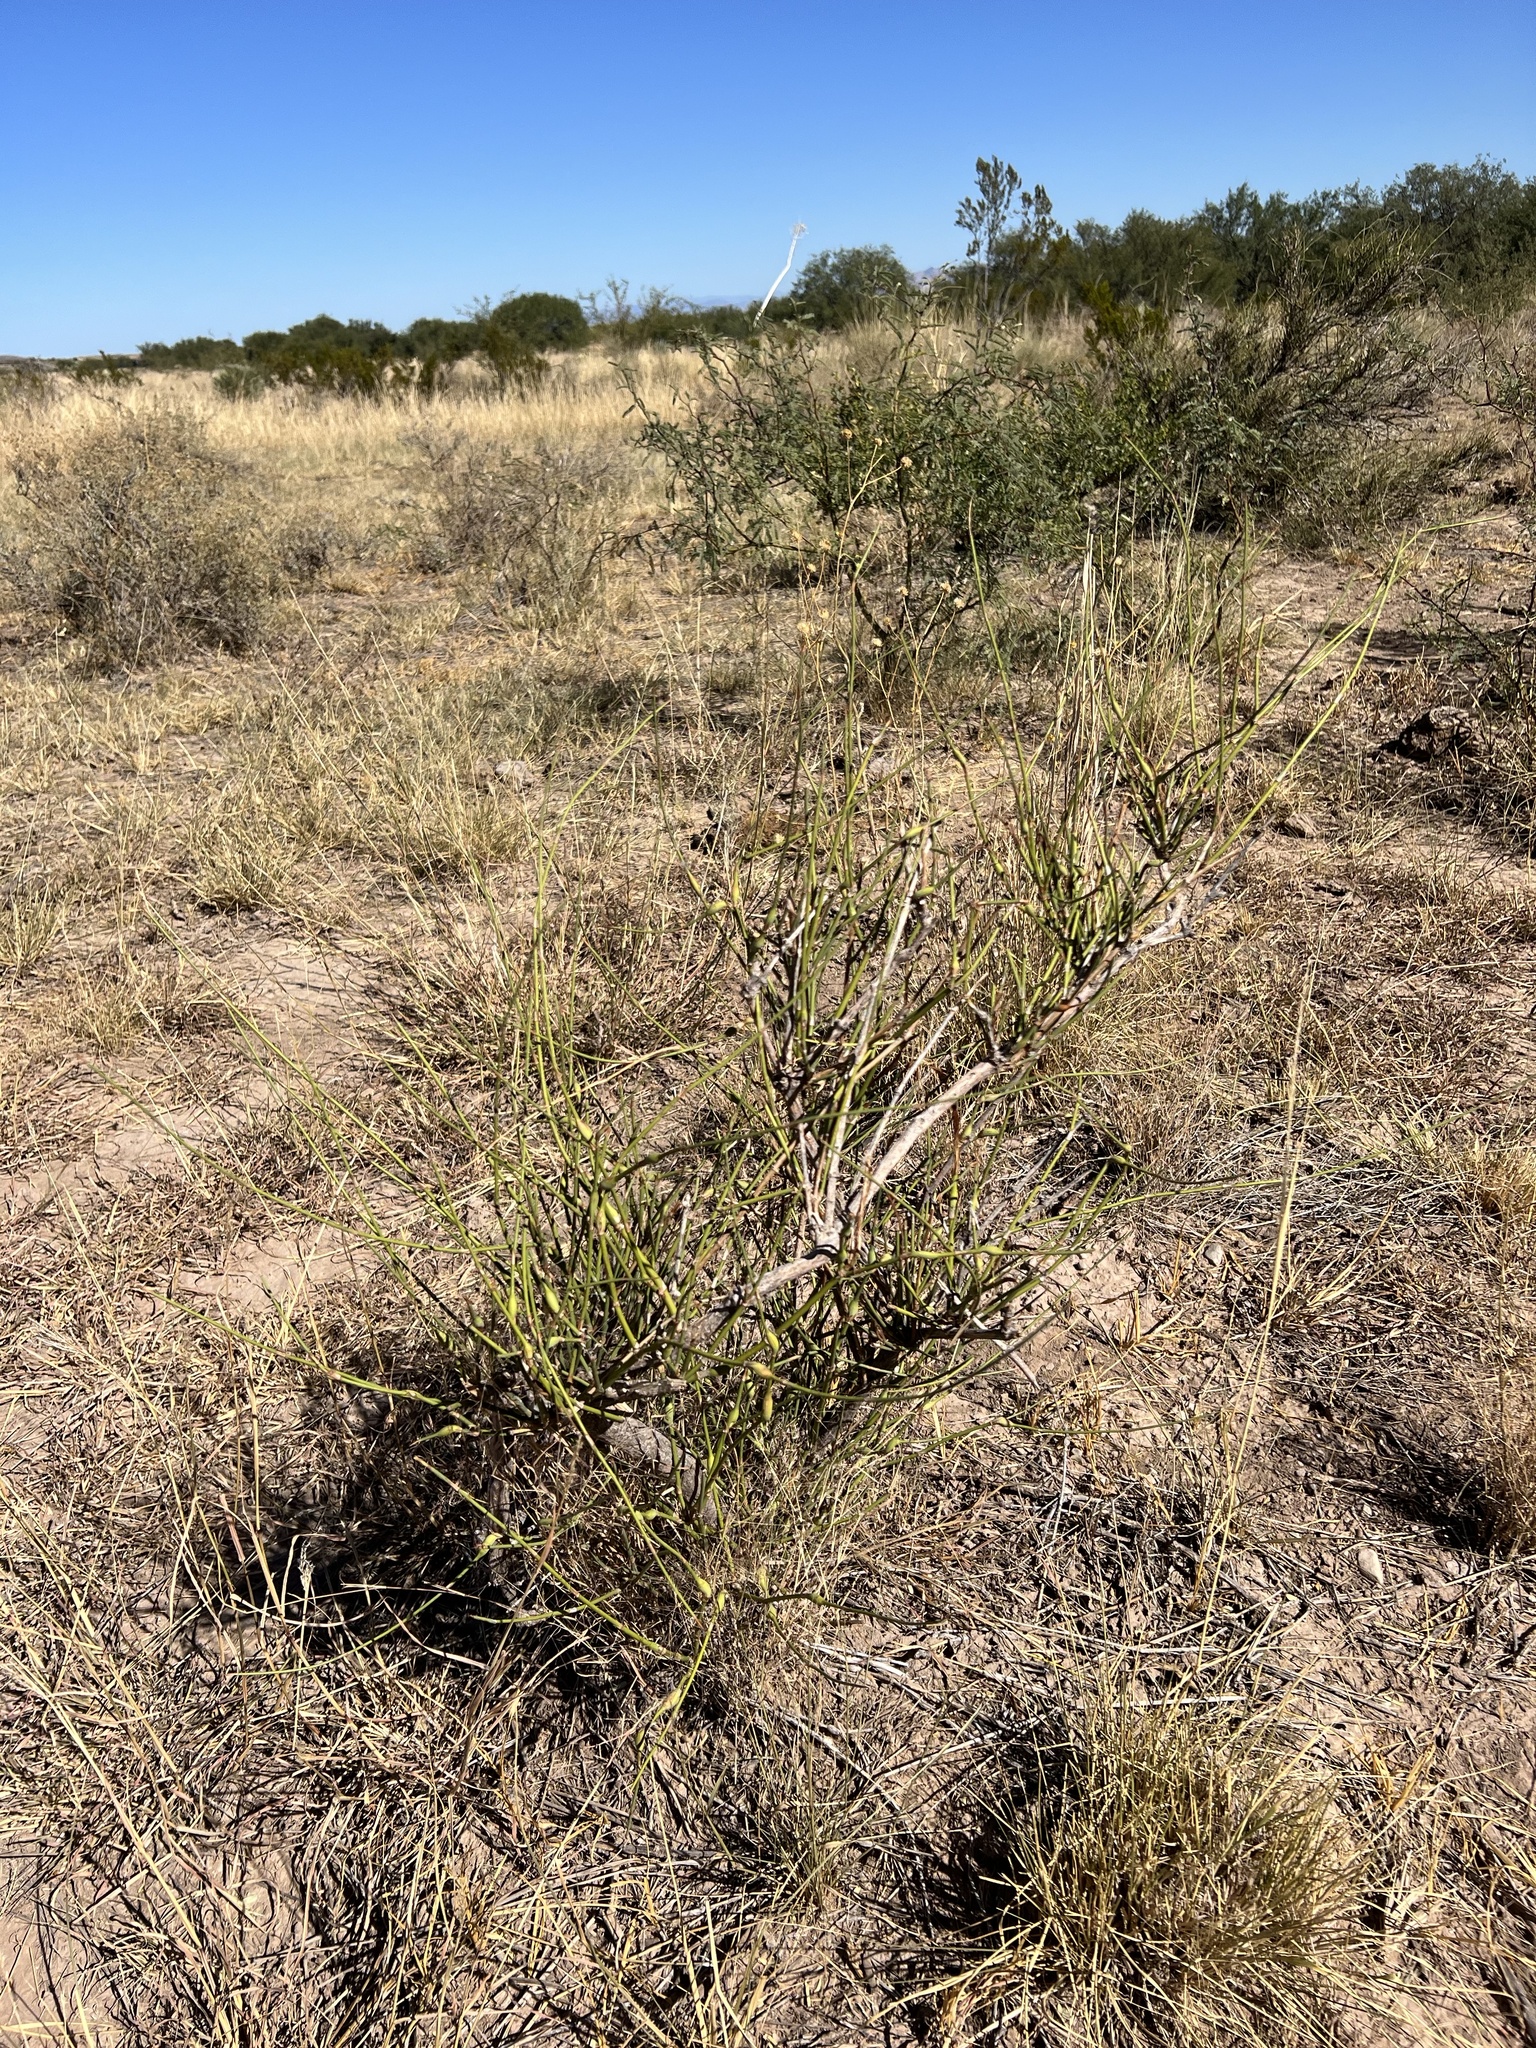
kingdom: Plantae
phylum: Tracheophyta
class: Gnetopsida
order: Ephedrales
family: Ephedraceae
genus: Ephedra
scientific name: Ephedra trifurca
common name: Mexican-tea
